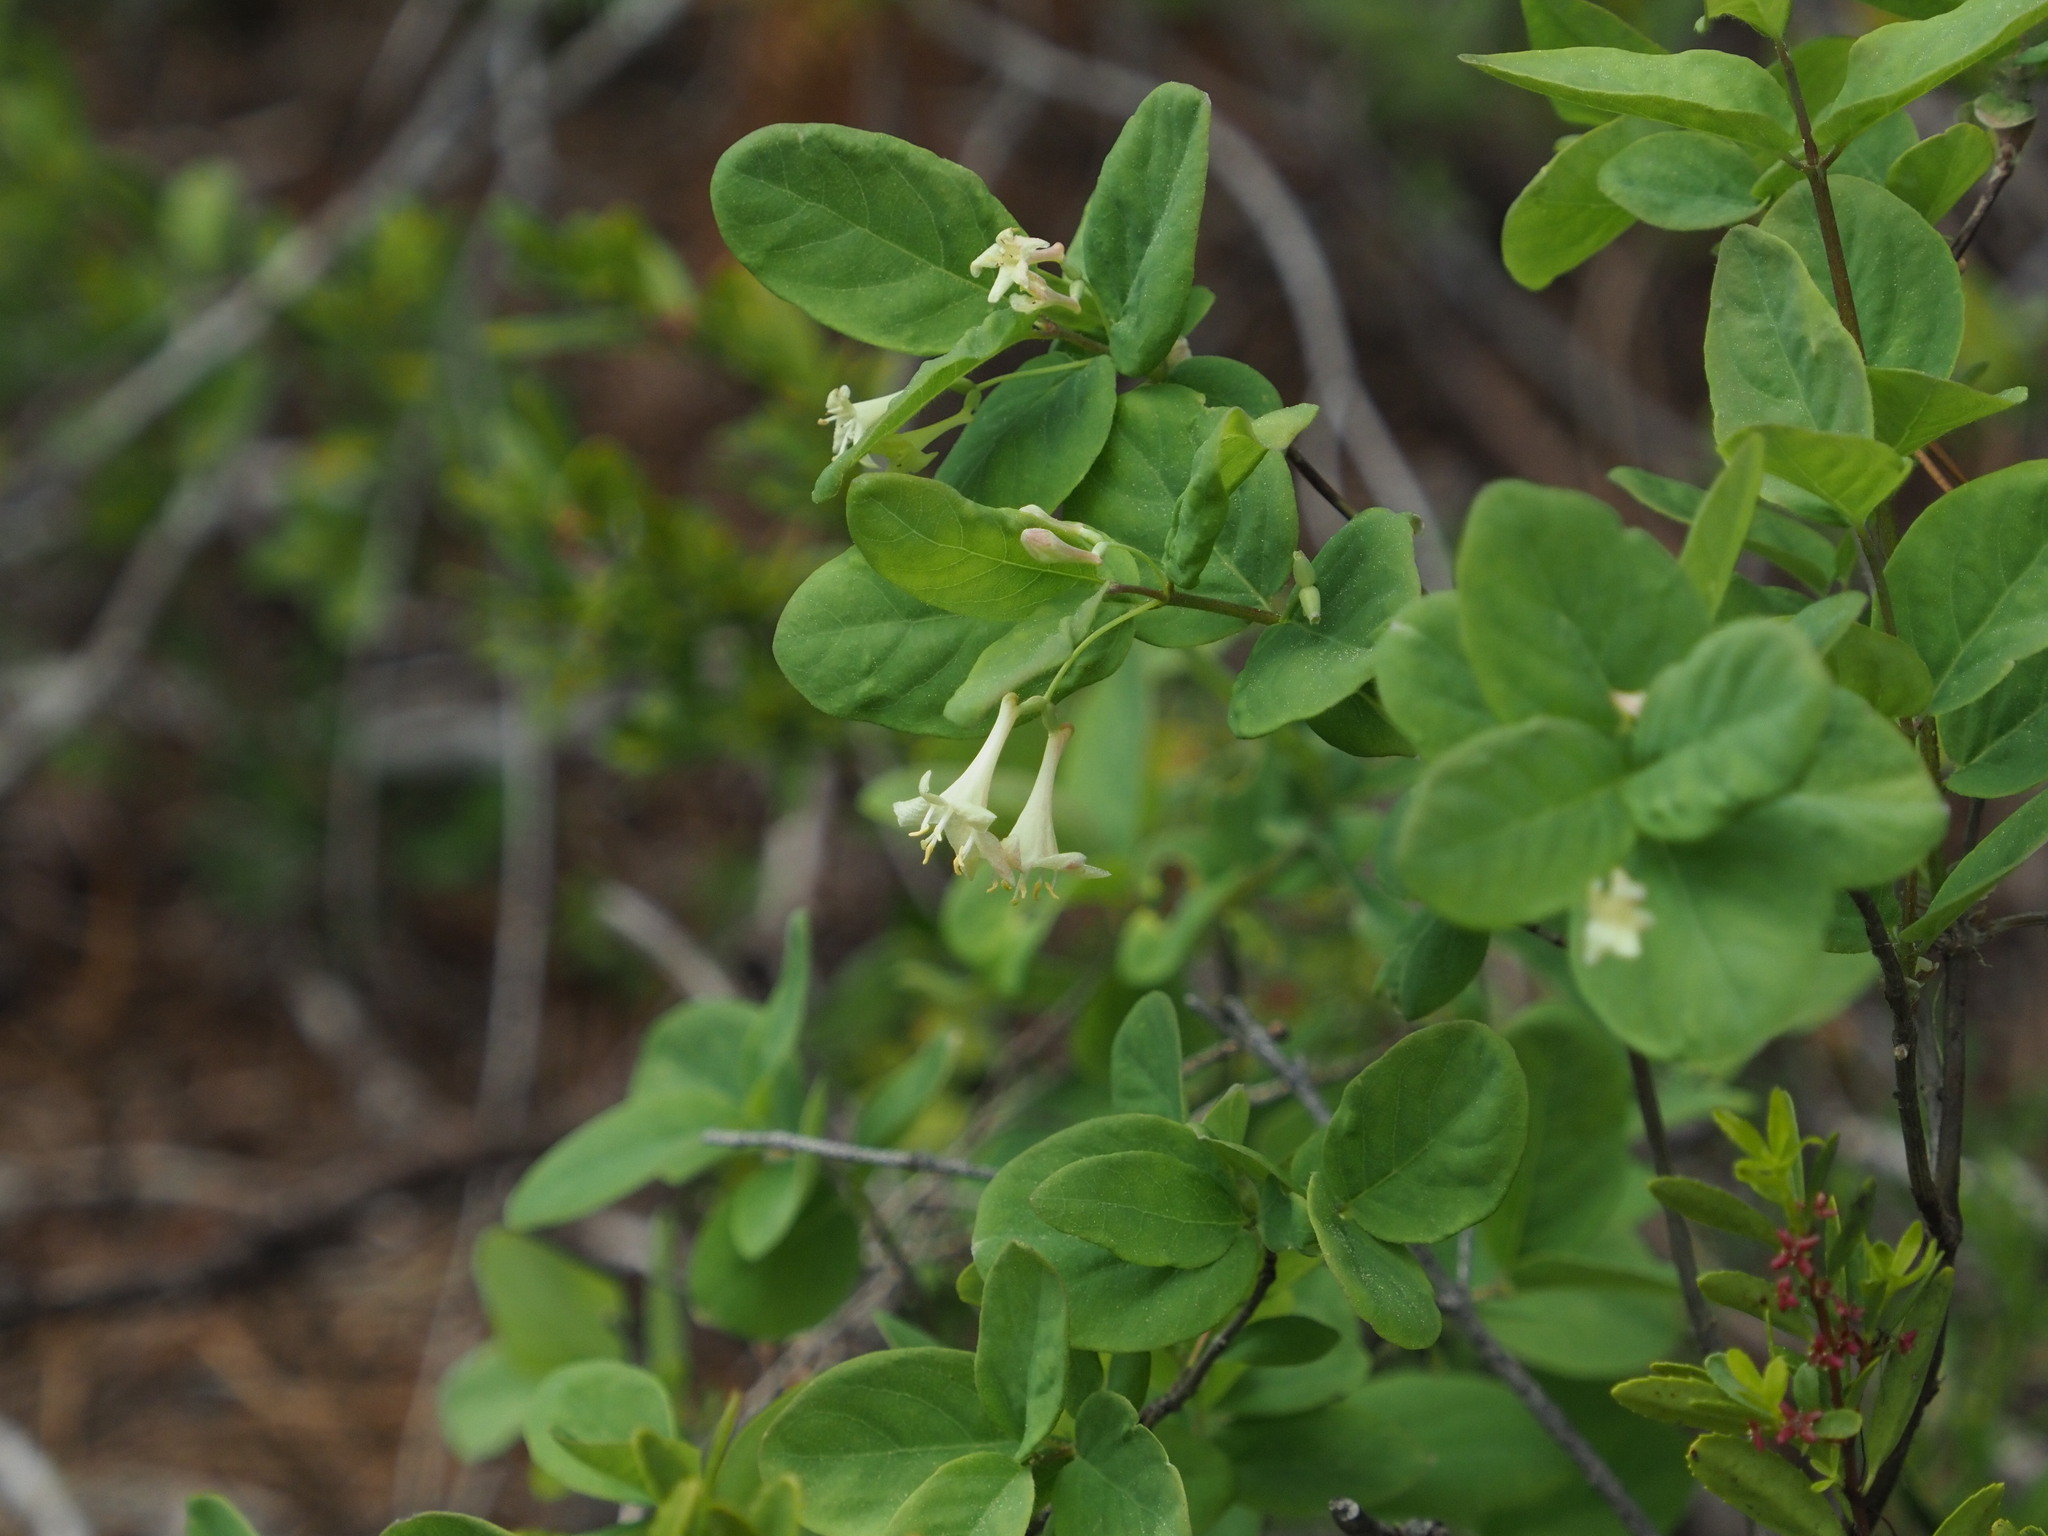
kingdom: Plantae
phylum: Tracheophyta
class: Magnoliopsida
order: Dipsacales
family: Caprifoliaceae
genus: Lonicera
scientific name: Lonicera utahensis
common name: Utah honeysuckle
